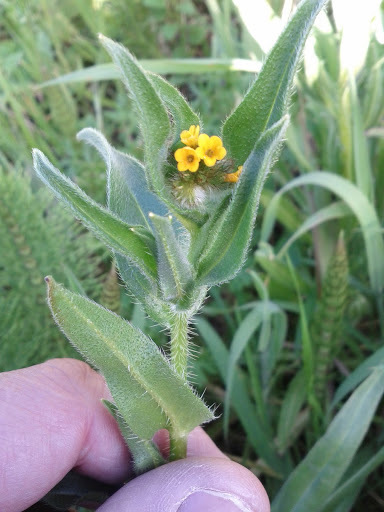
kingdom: Plantae
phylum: Tracheophyta
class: Magnoliopsida
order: Boraginales
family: Boraginaceae
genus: Amsinckia
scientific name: Amsinckia menziesii
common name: Menzies' fiddleneck
